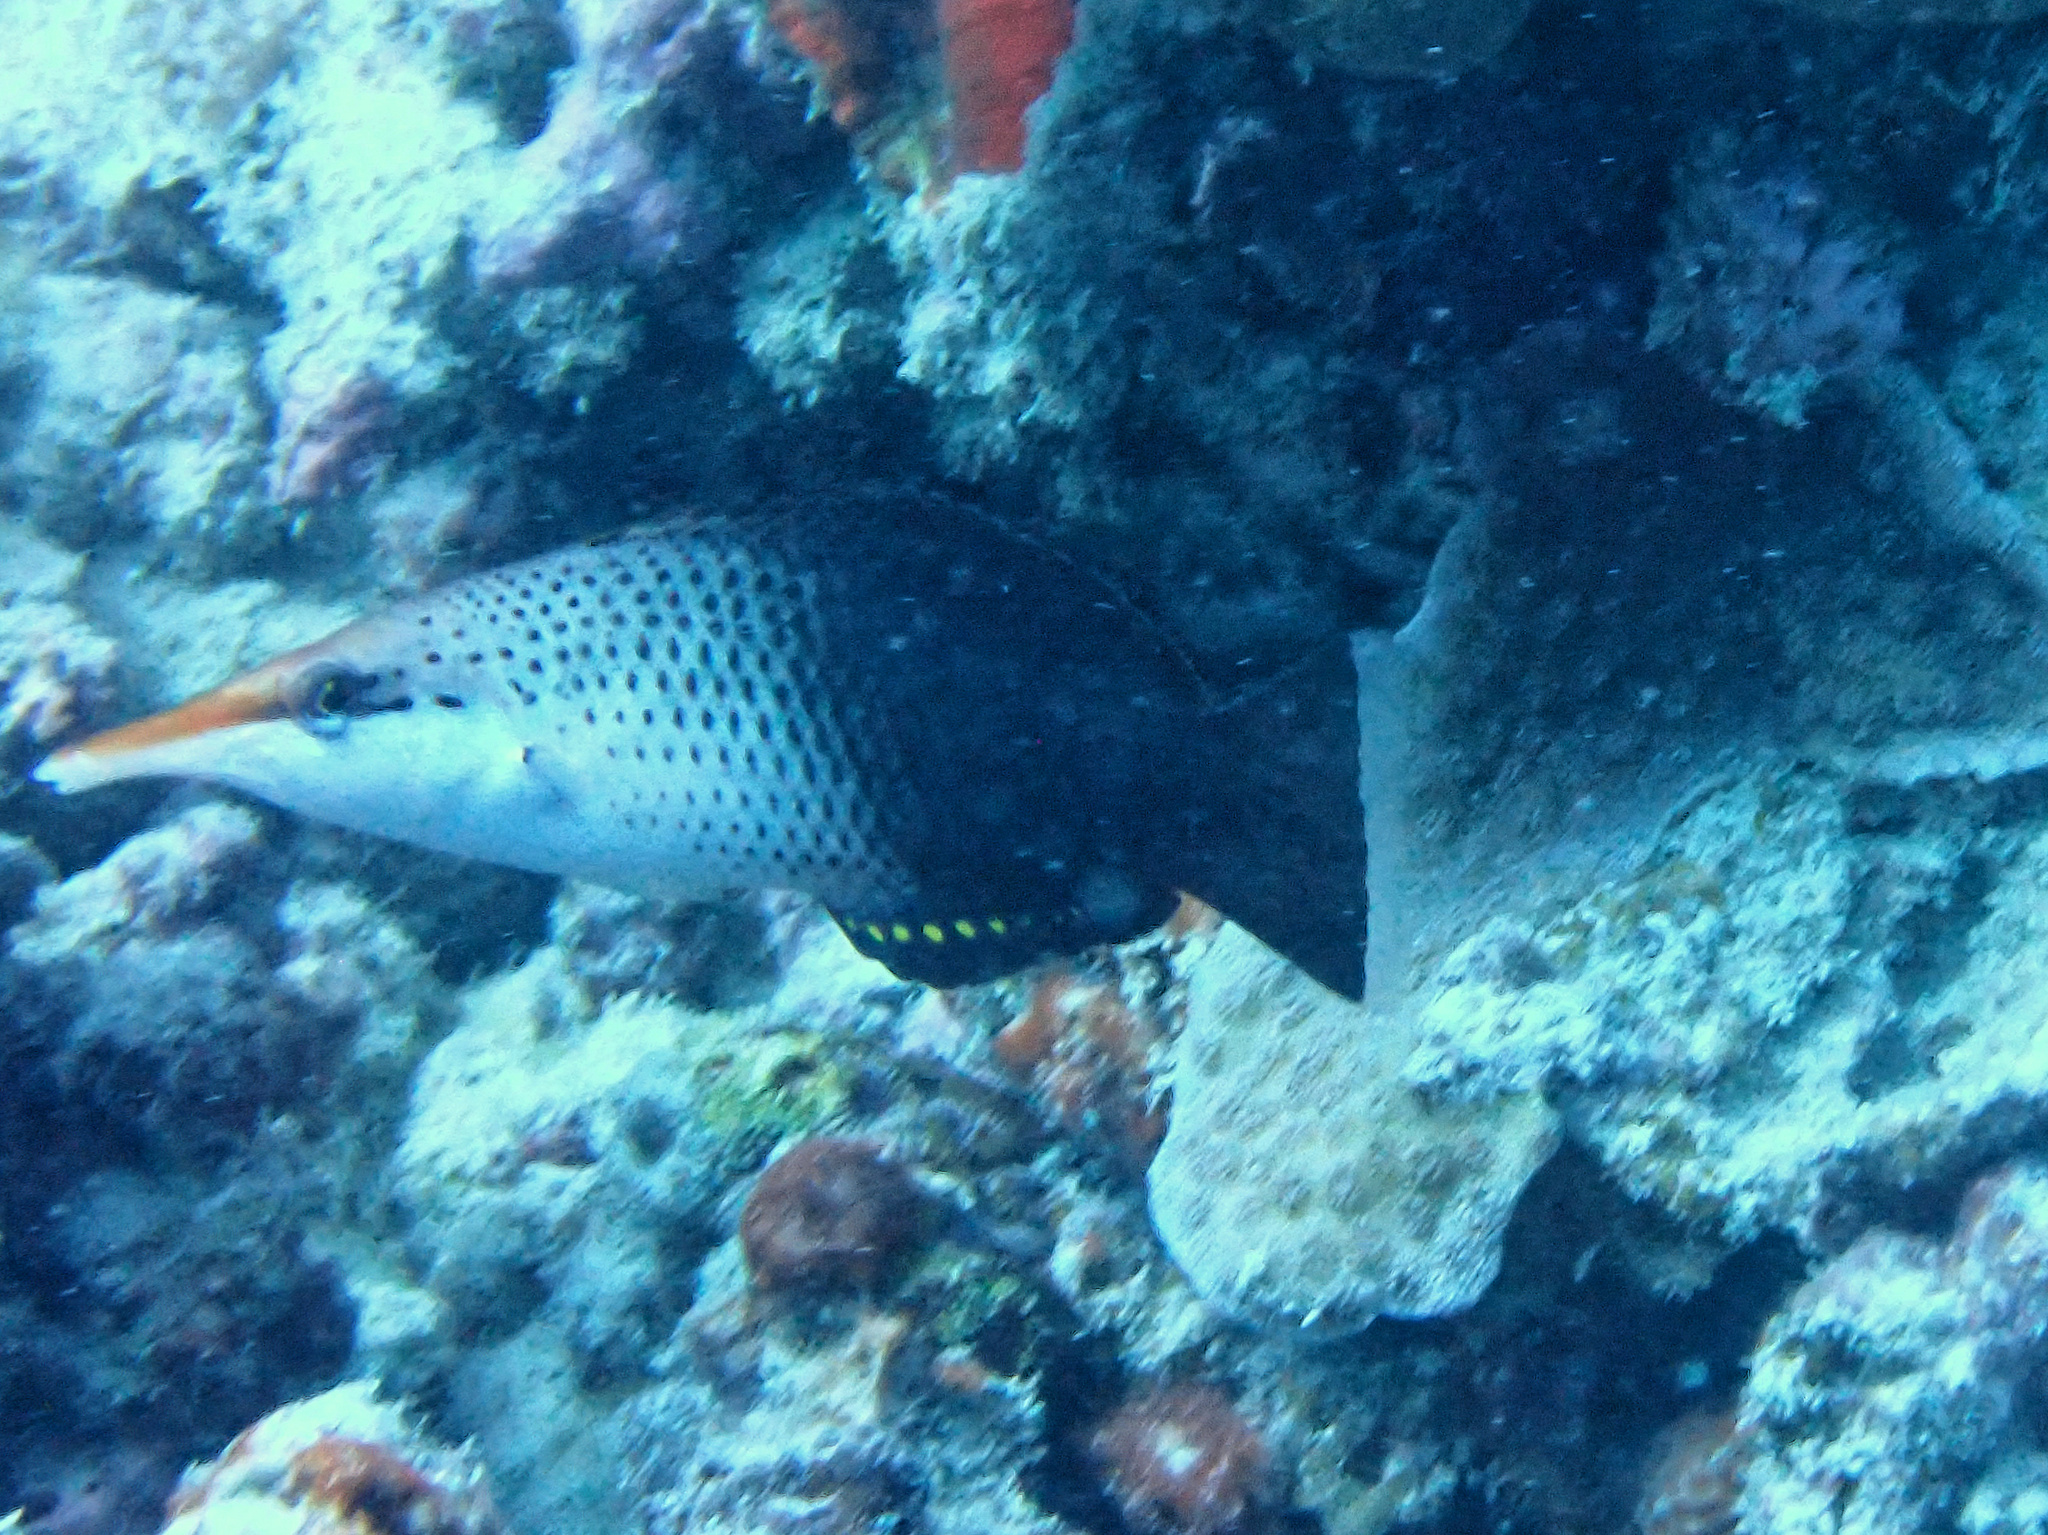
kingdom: Animalia
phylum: Chordata
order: Perciformes
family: Labridae
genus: Gomphosus
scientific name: Gomphosus varius
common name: Bird wrasse
